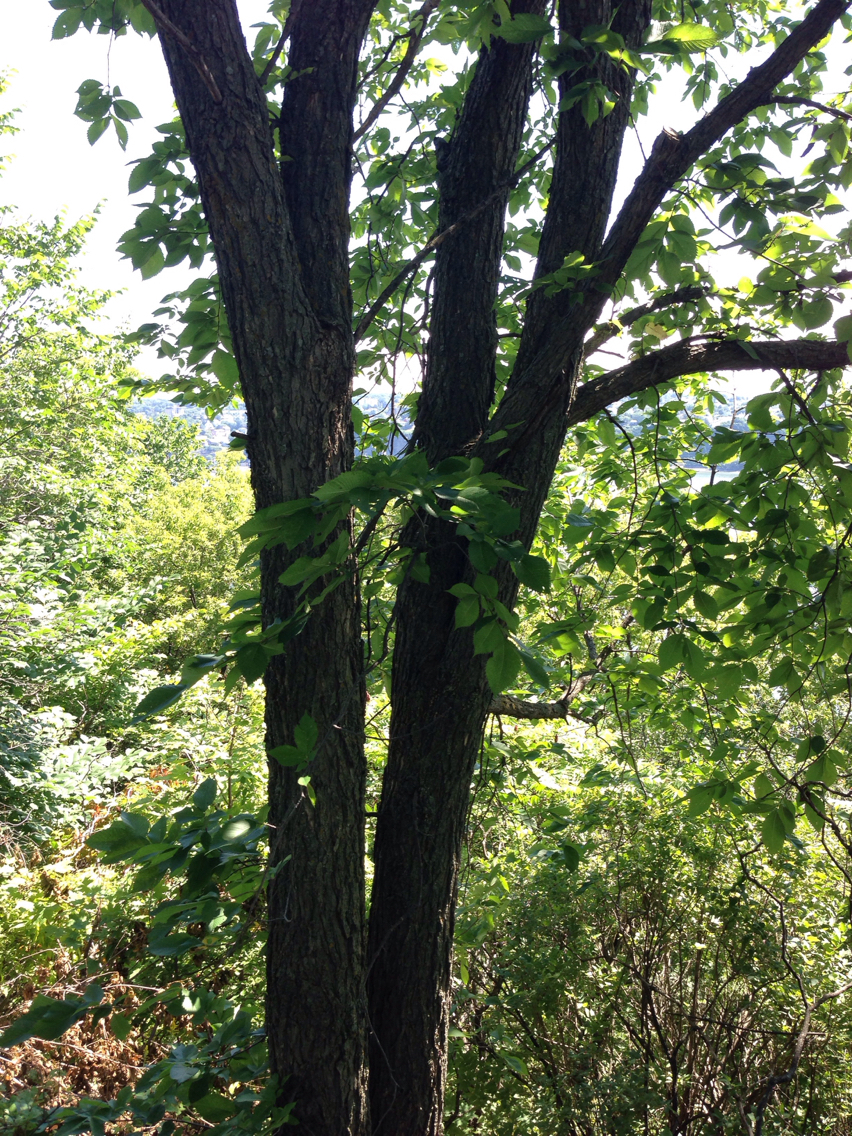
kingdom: Plantae
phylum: Tracheophyta
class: Magnoliopsida
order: Rosales
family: Ulmaceae
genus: Ulmus
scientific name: Ulmus americana
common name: American elm
